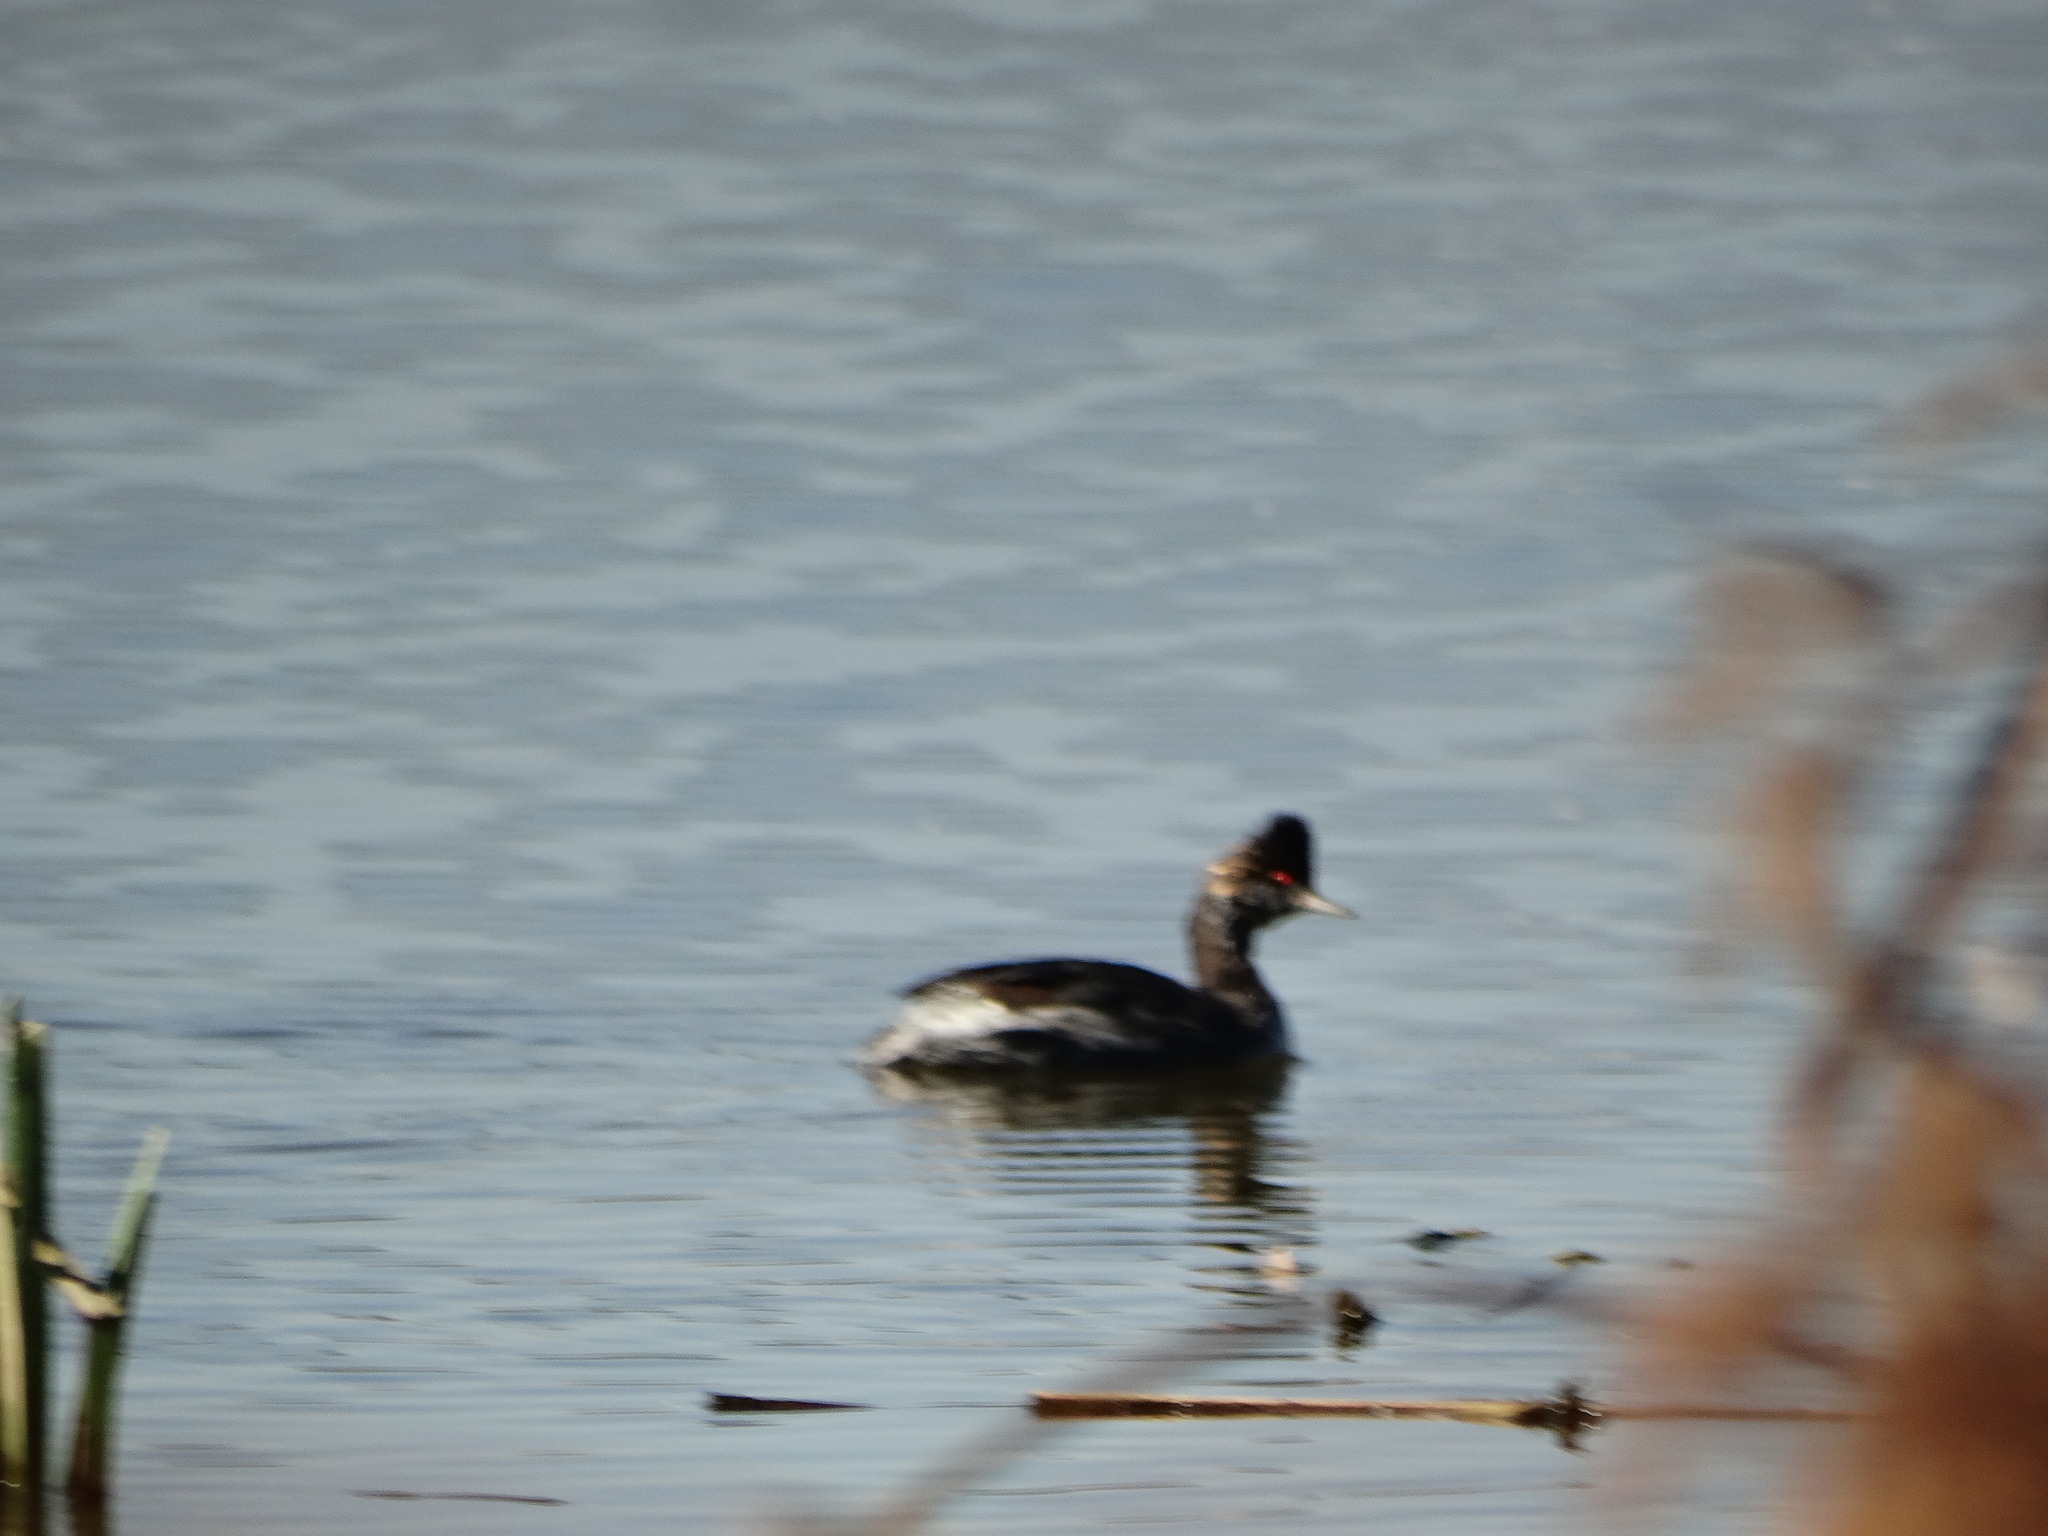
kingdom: Animalia
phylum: Chordata
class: Aves
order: Podicipediformes
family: Podicipedidae
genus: Podiceps
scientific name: Podiceps nigricollis
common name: Black-necked grebe
